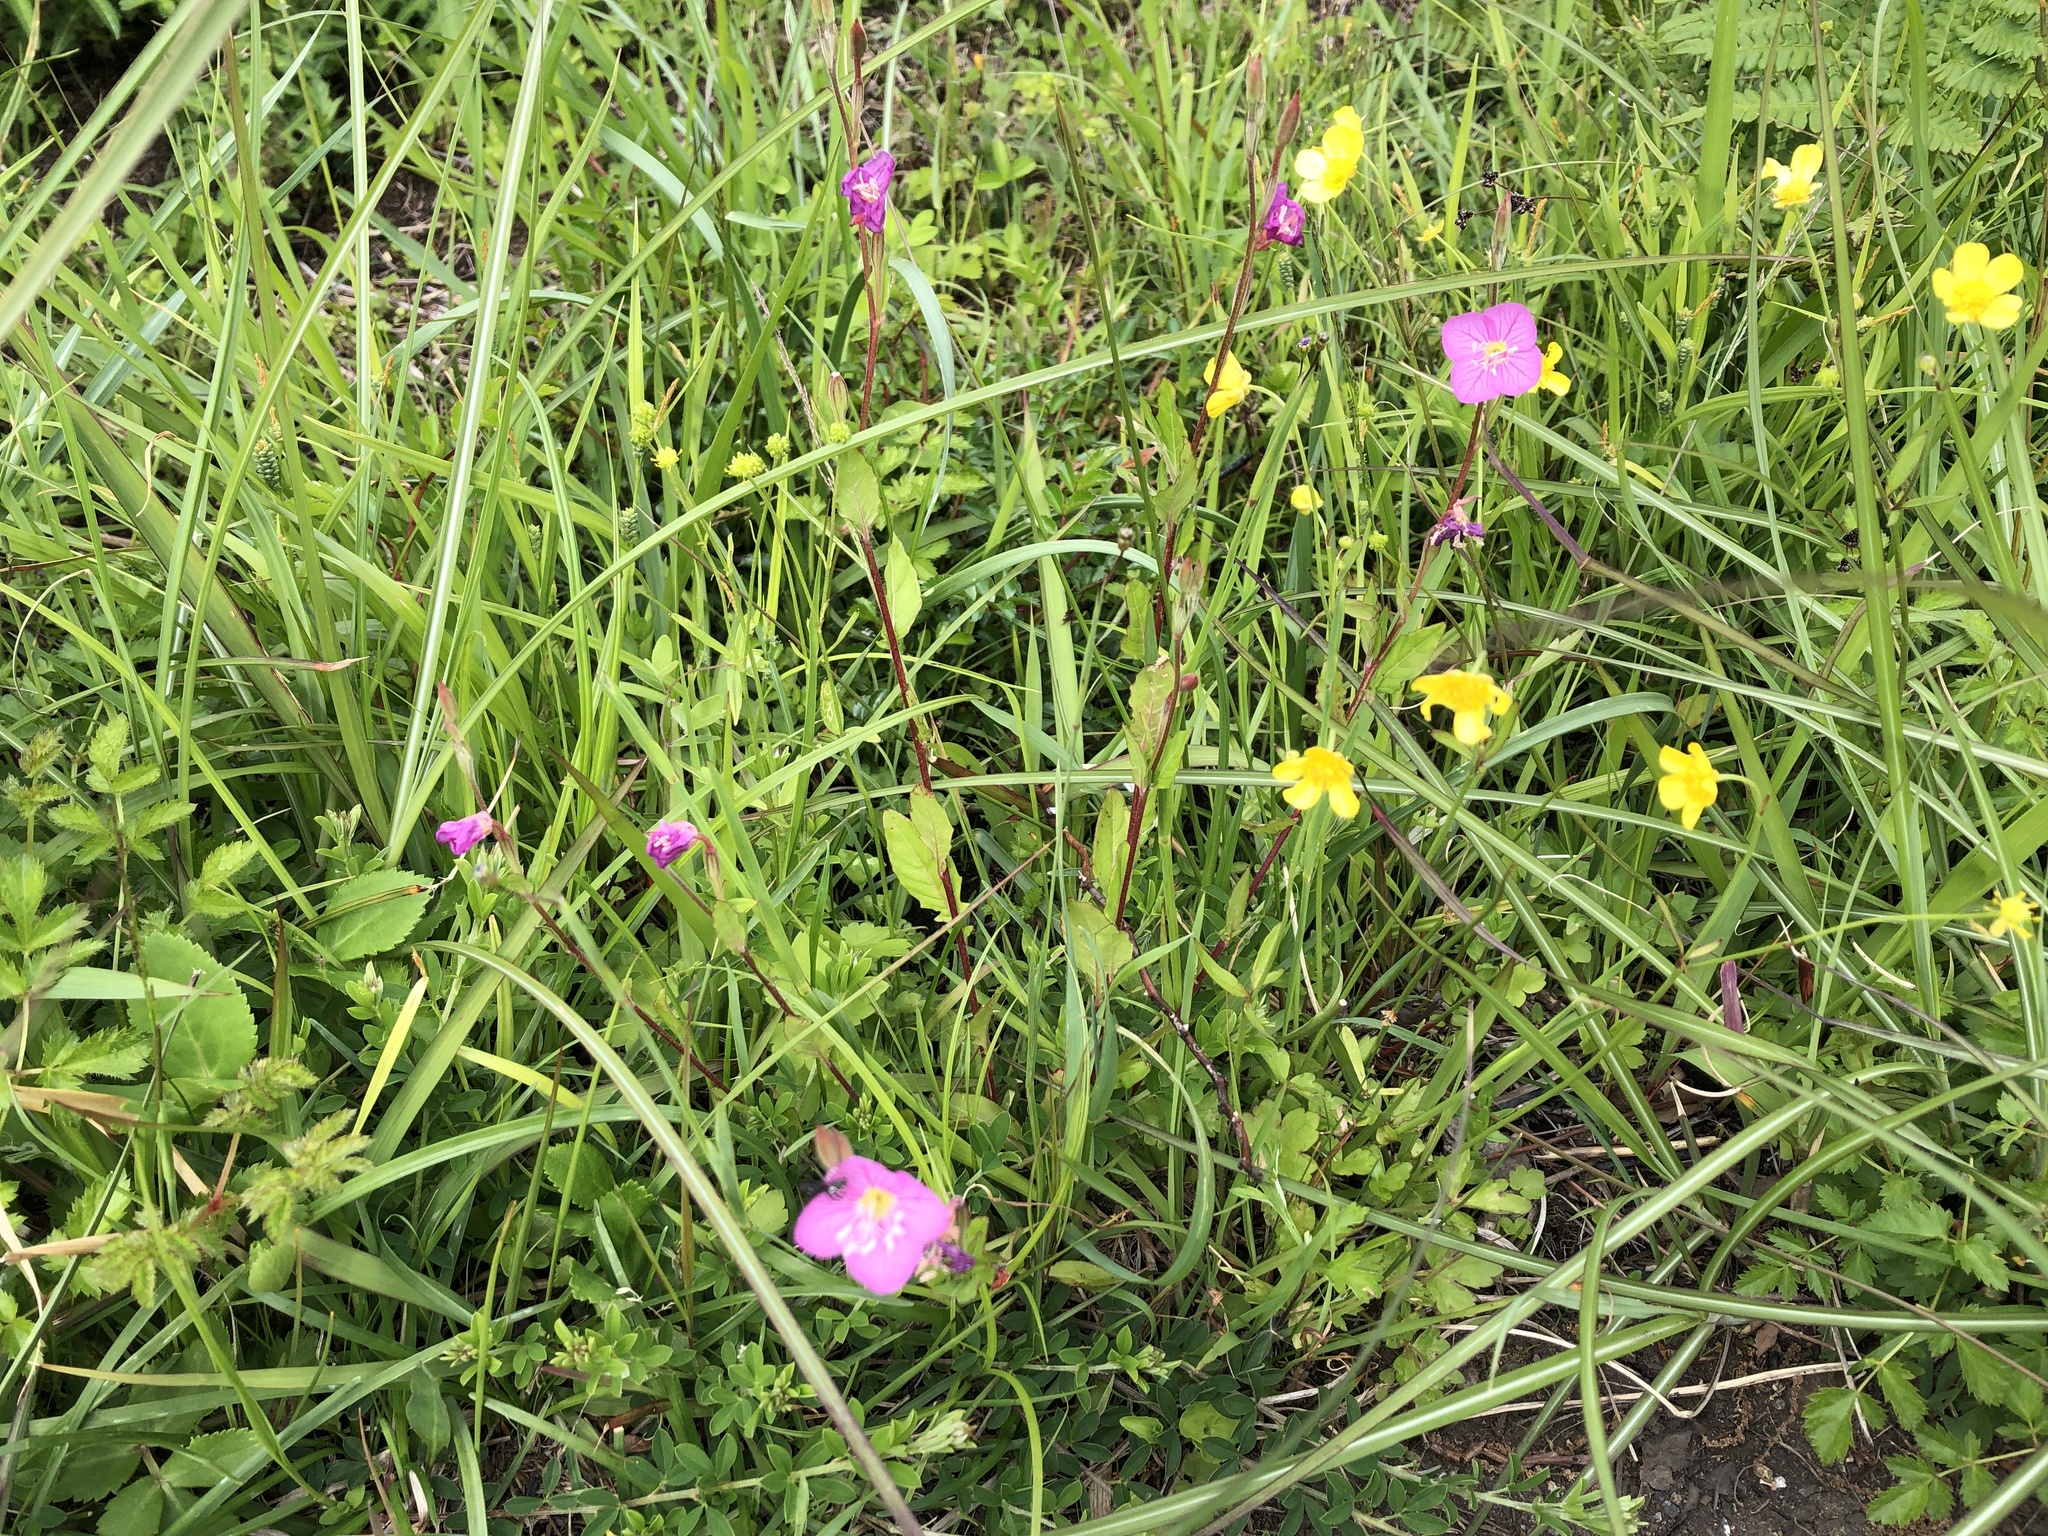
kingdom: Plantae
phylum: Tracheophyta
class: Magnoliopsida
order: Myrtales
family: Onagraceae
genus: Oenothera
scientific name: Oenothera rosea
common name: Rosy evening-primrose
